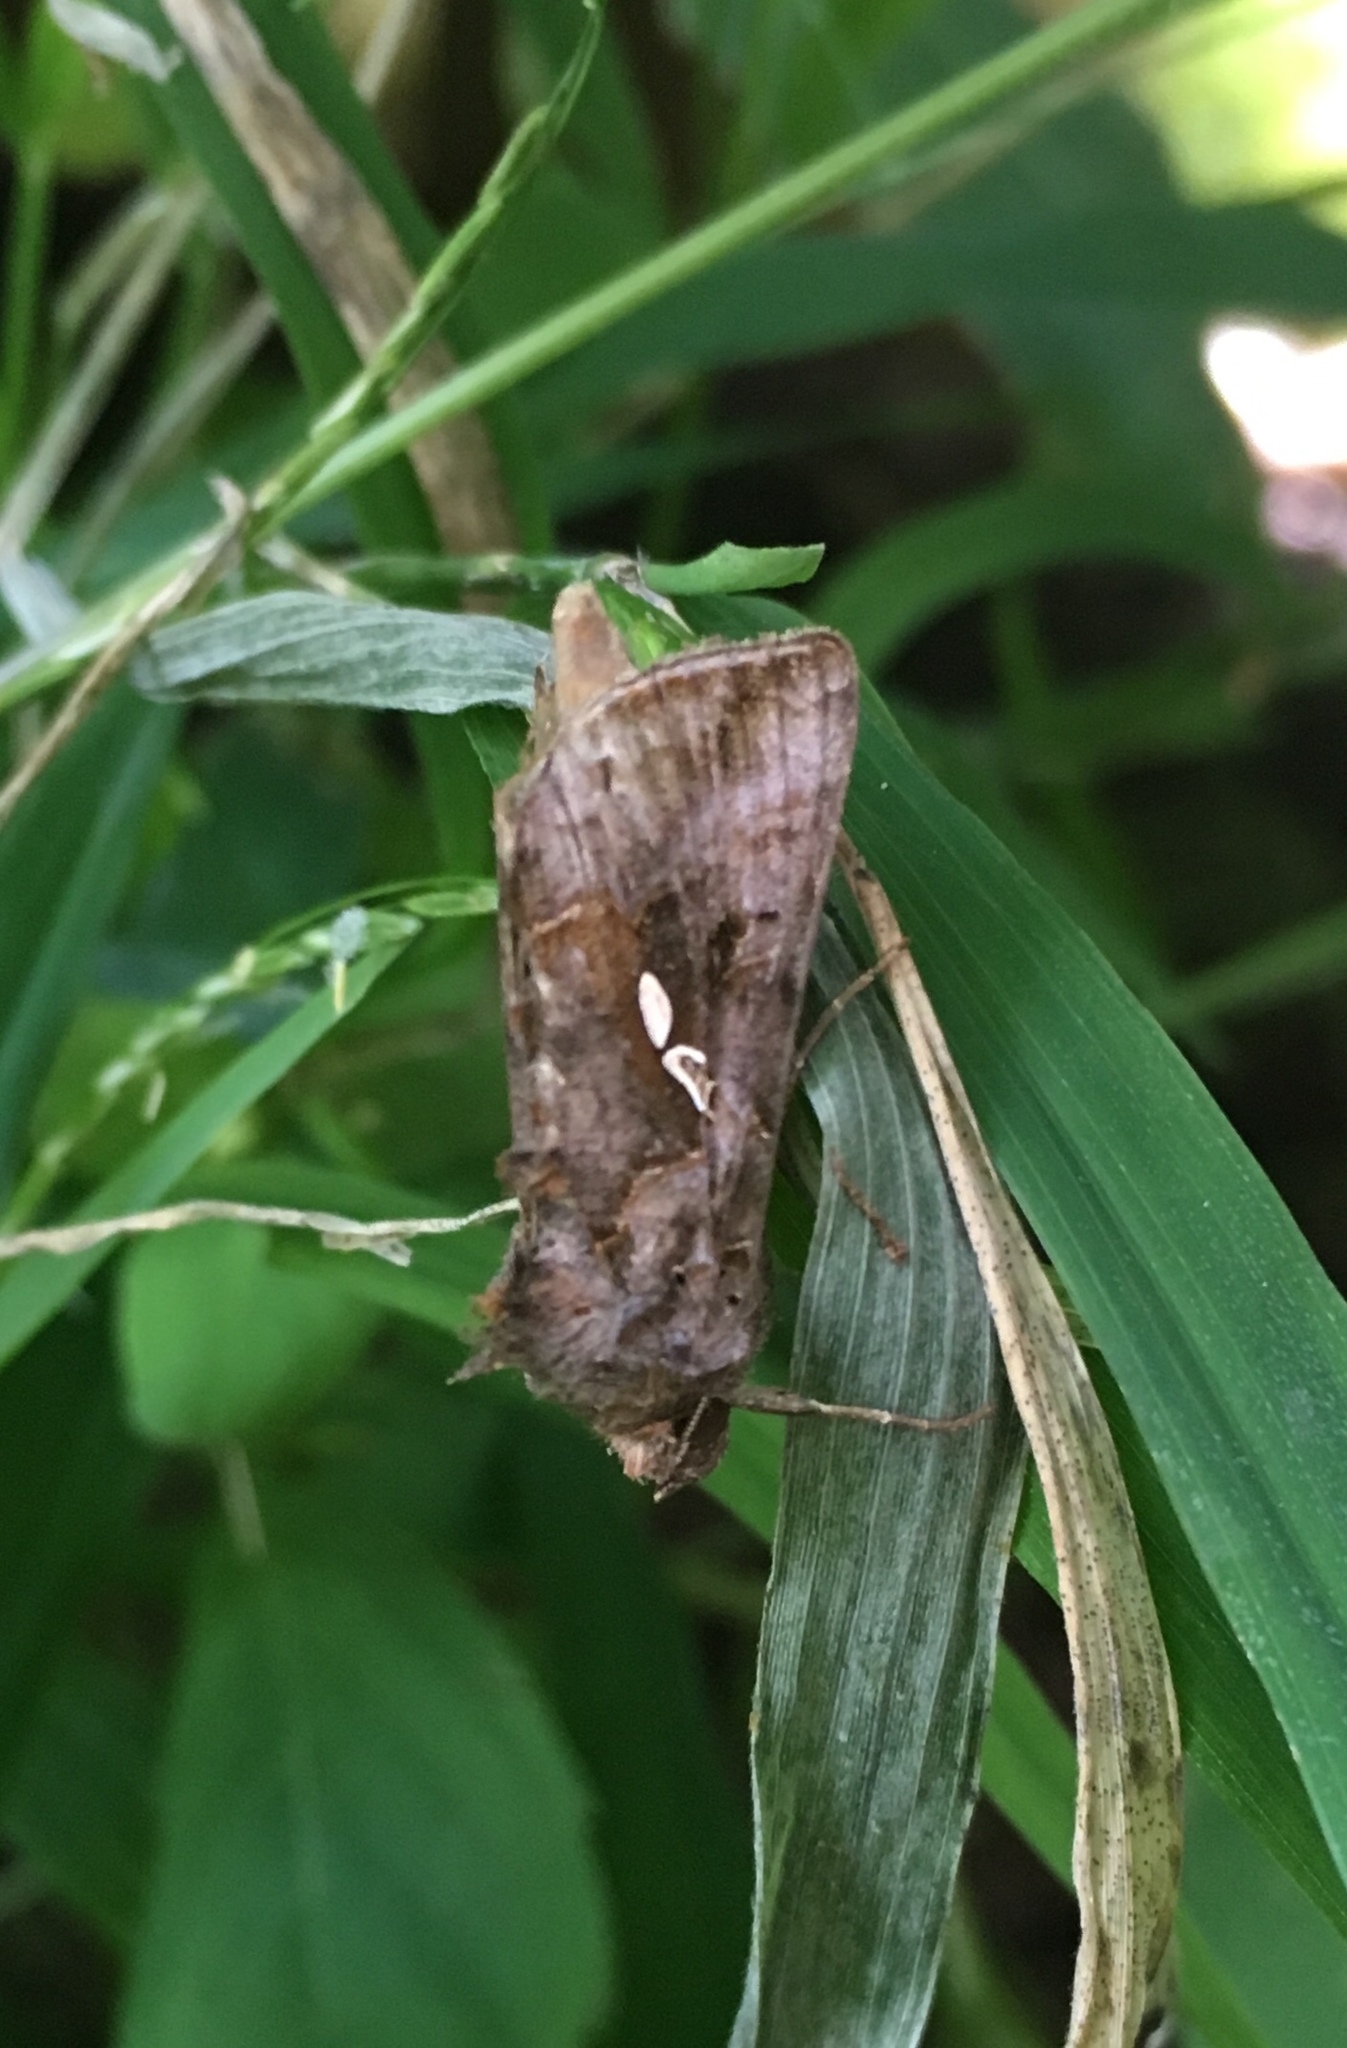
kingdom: Animalia
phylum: Arthropoda
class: Insecta
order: Lepidoptera
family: Noctuidae
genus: Autographa
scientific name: Autographa precationis
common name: Common looper moth
